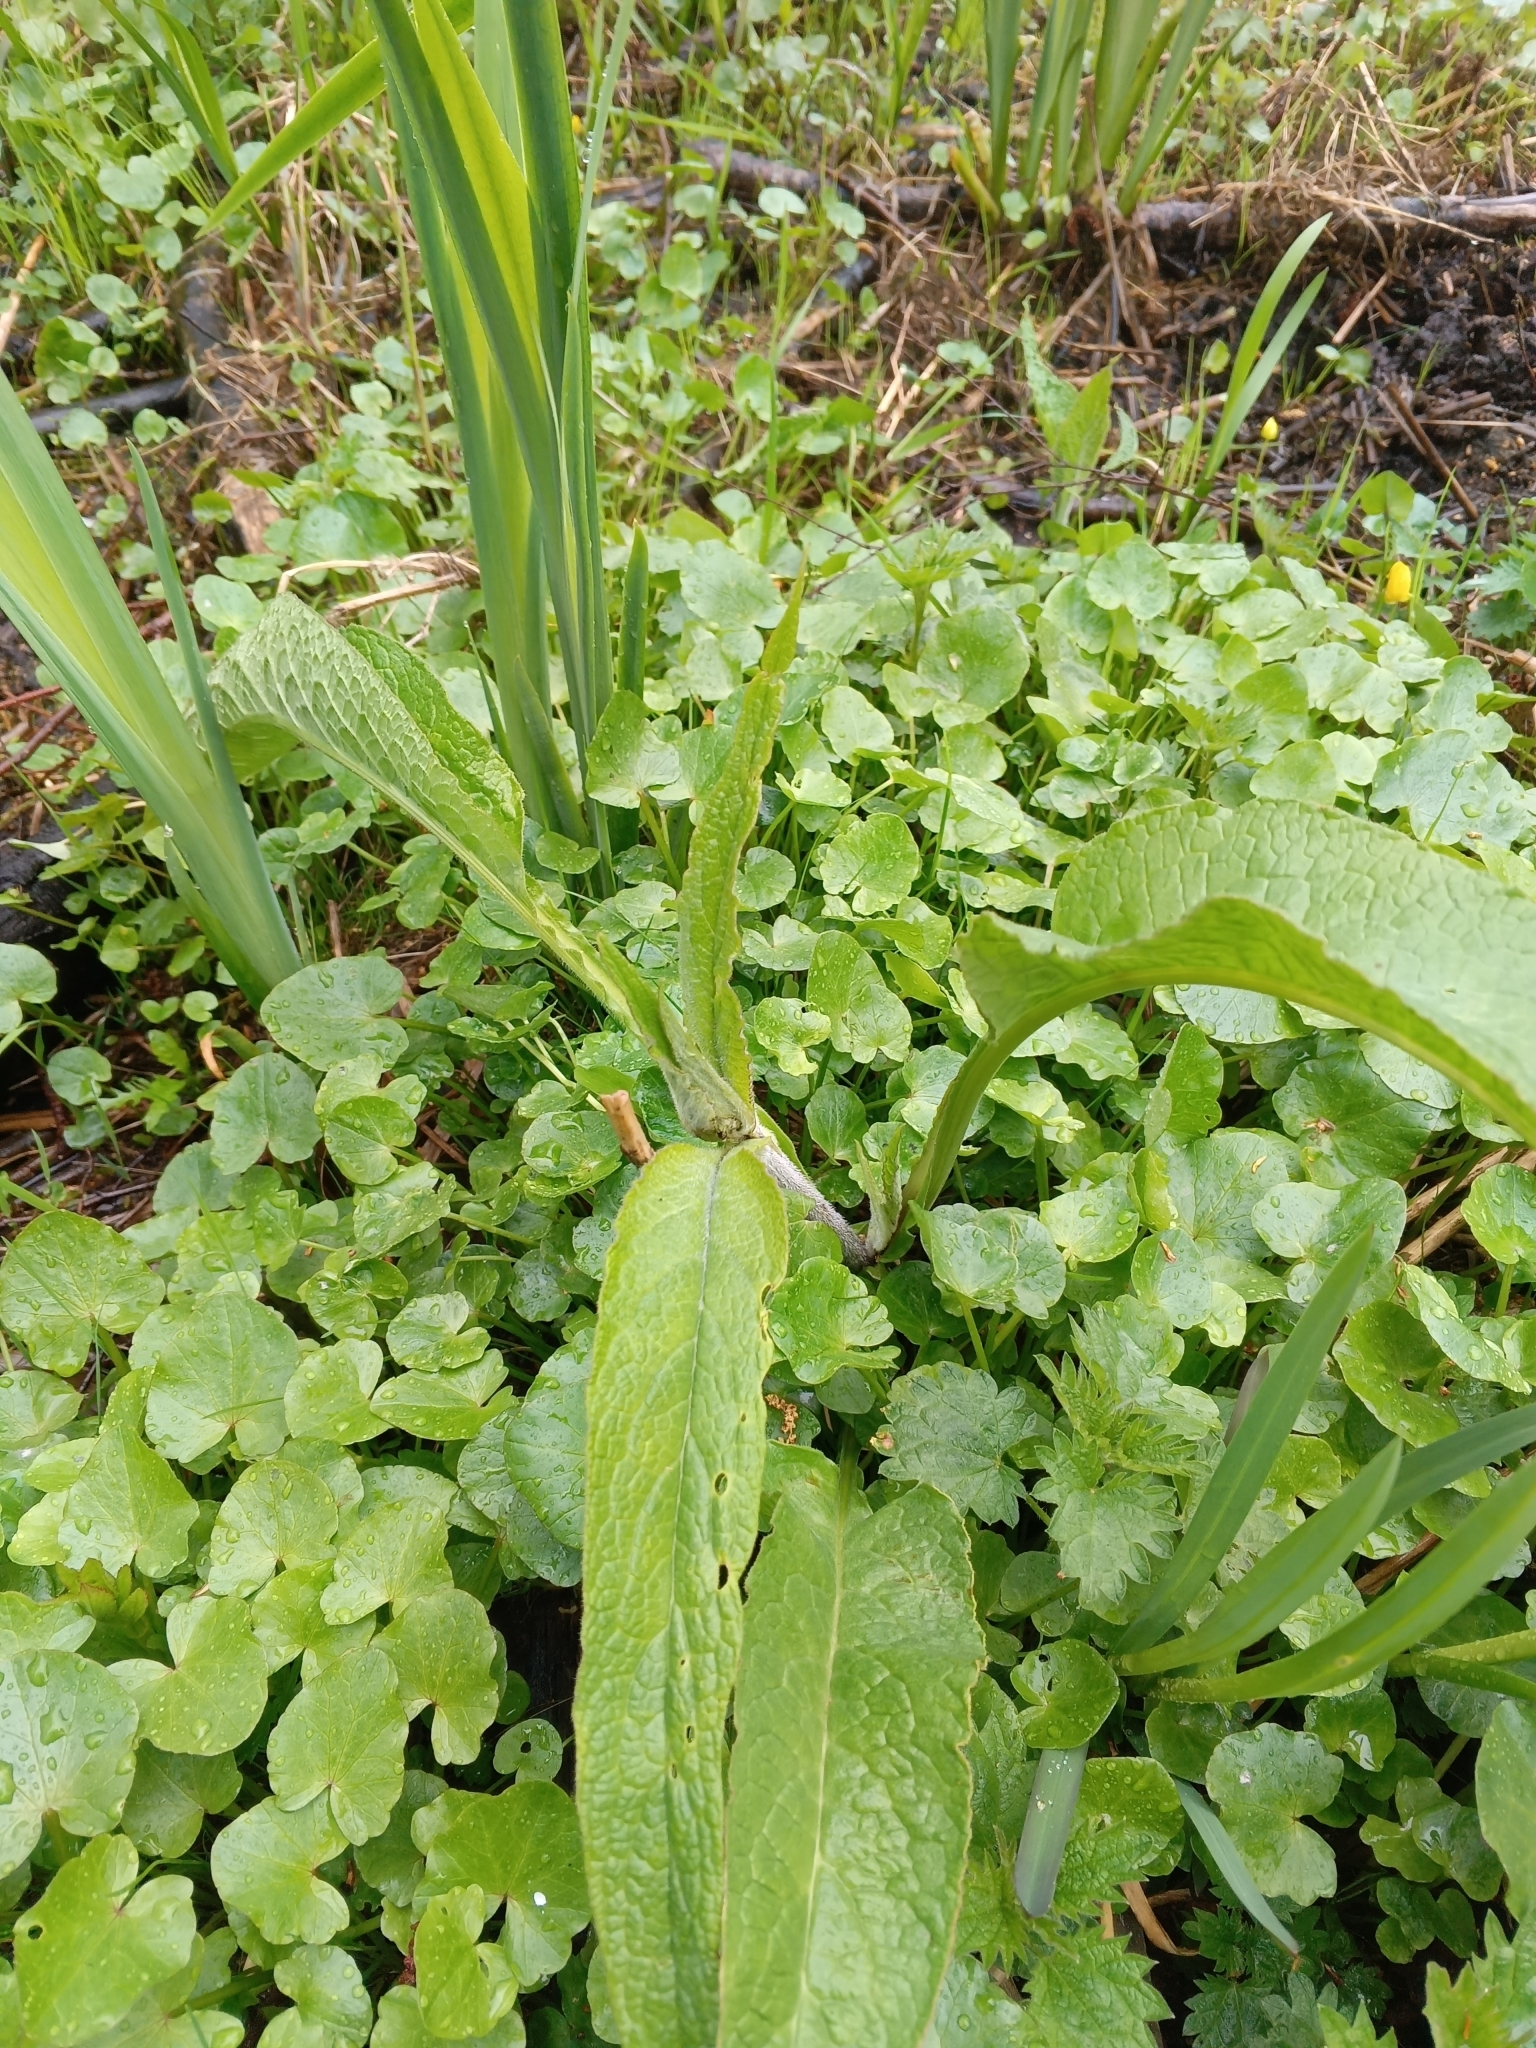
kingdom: Plantae
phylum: Tracheophyta
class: Magnoliopsida
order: Boraginales
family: Boraginaceae
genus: Symphytum
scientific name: Symphytum officinale
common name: Common comfrey
